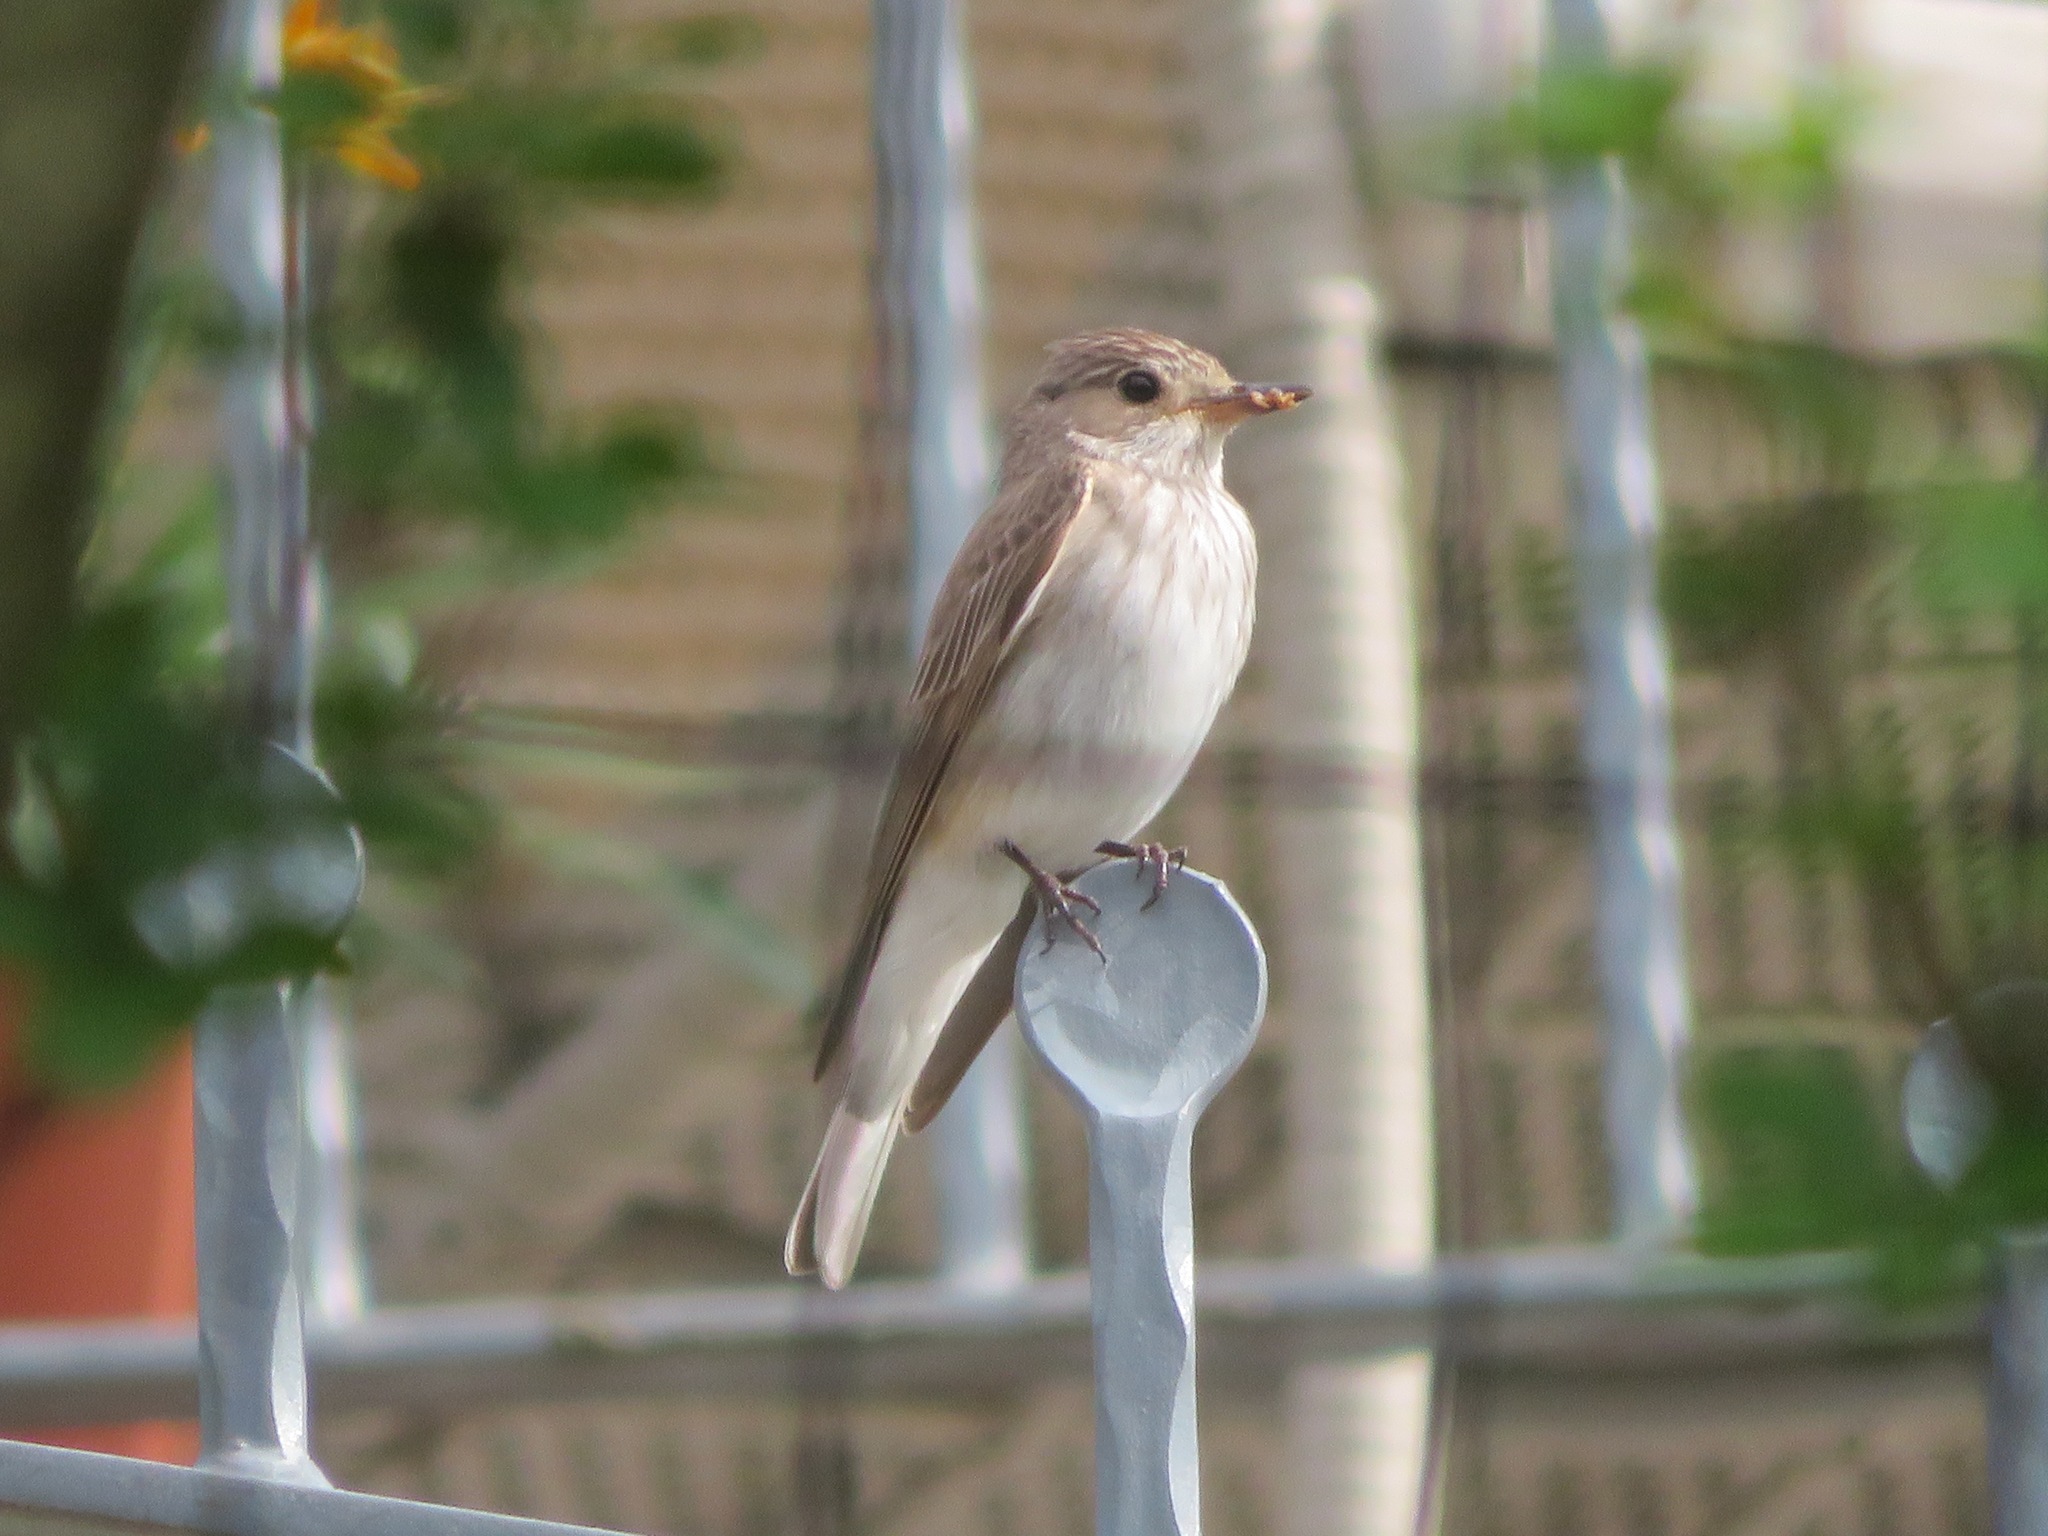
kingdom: Animalia
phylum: Chordata
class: Aves
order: Passeriformes
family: Muscicapidae
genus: Muscicapa
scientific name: Muscicapa striata
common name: Spotted flycatcher
